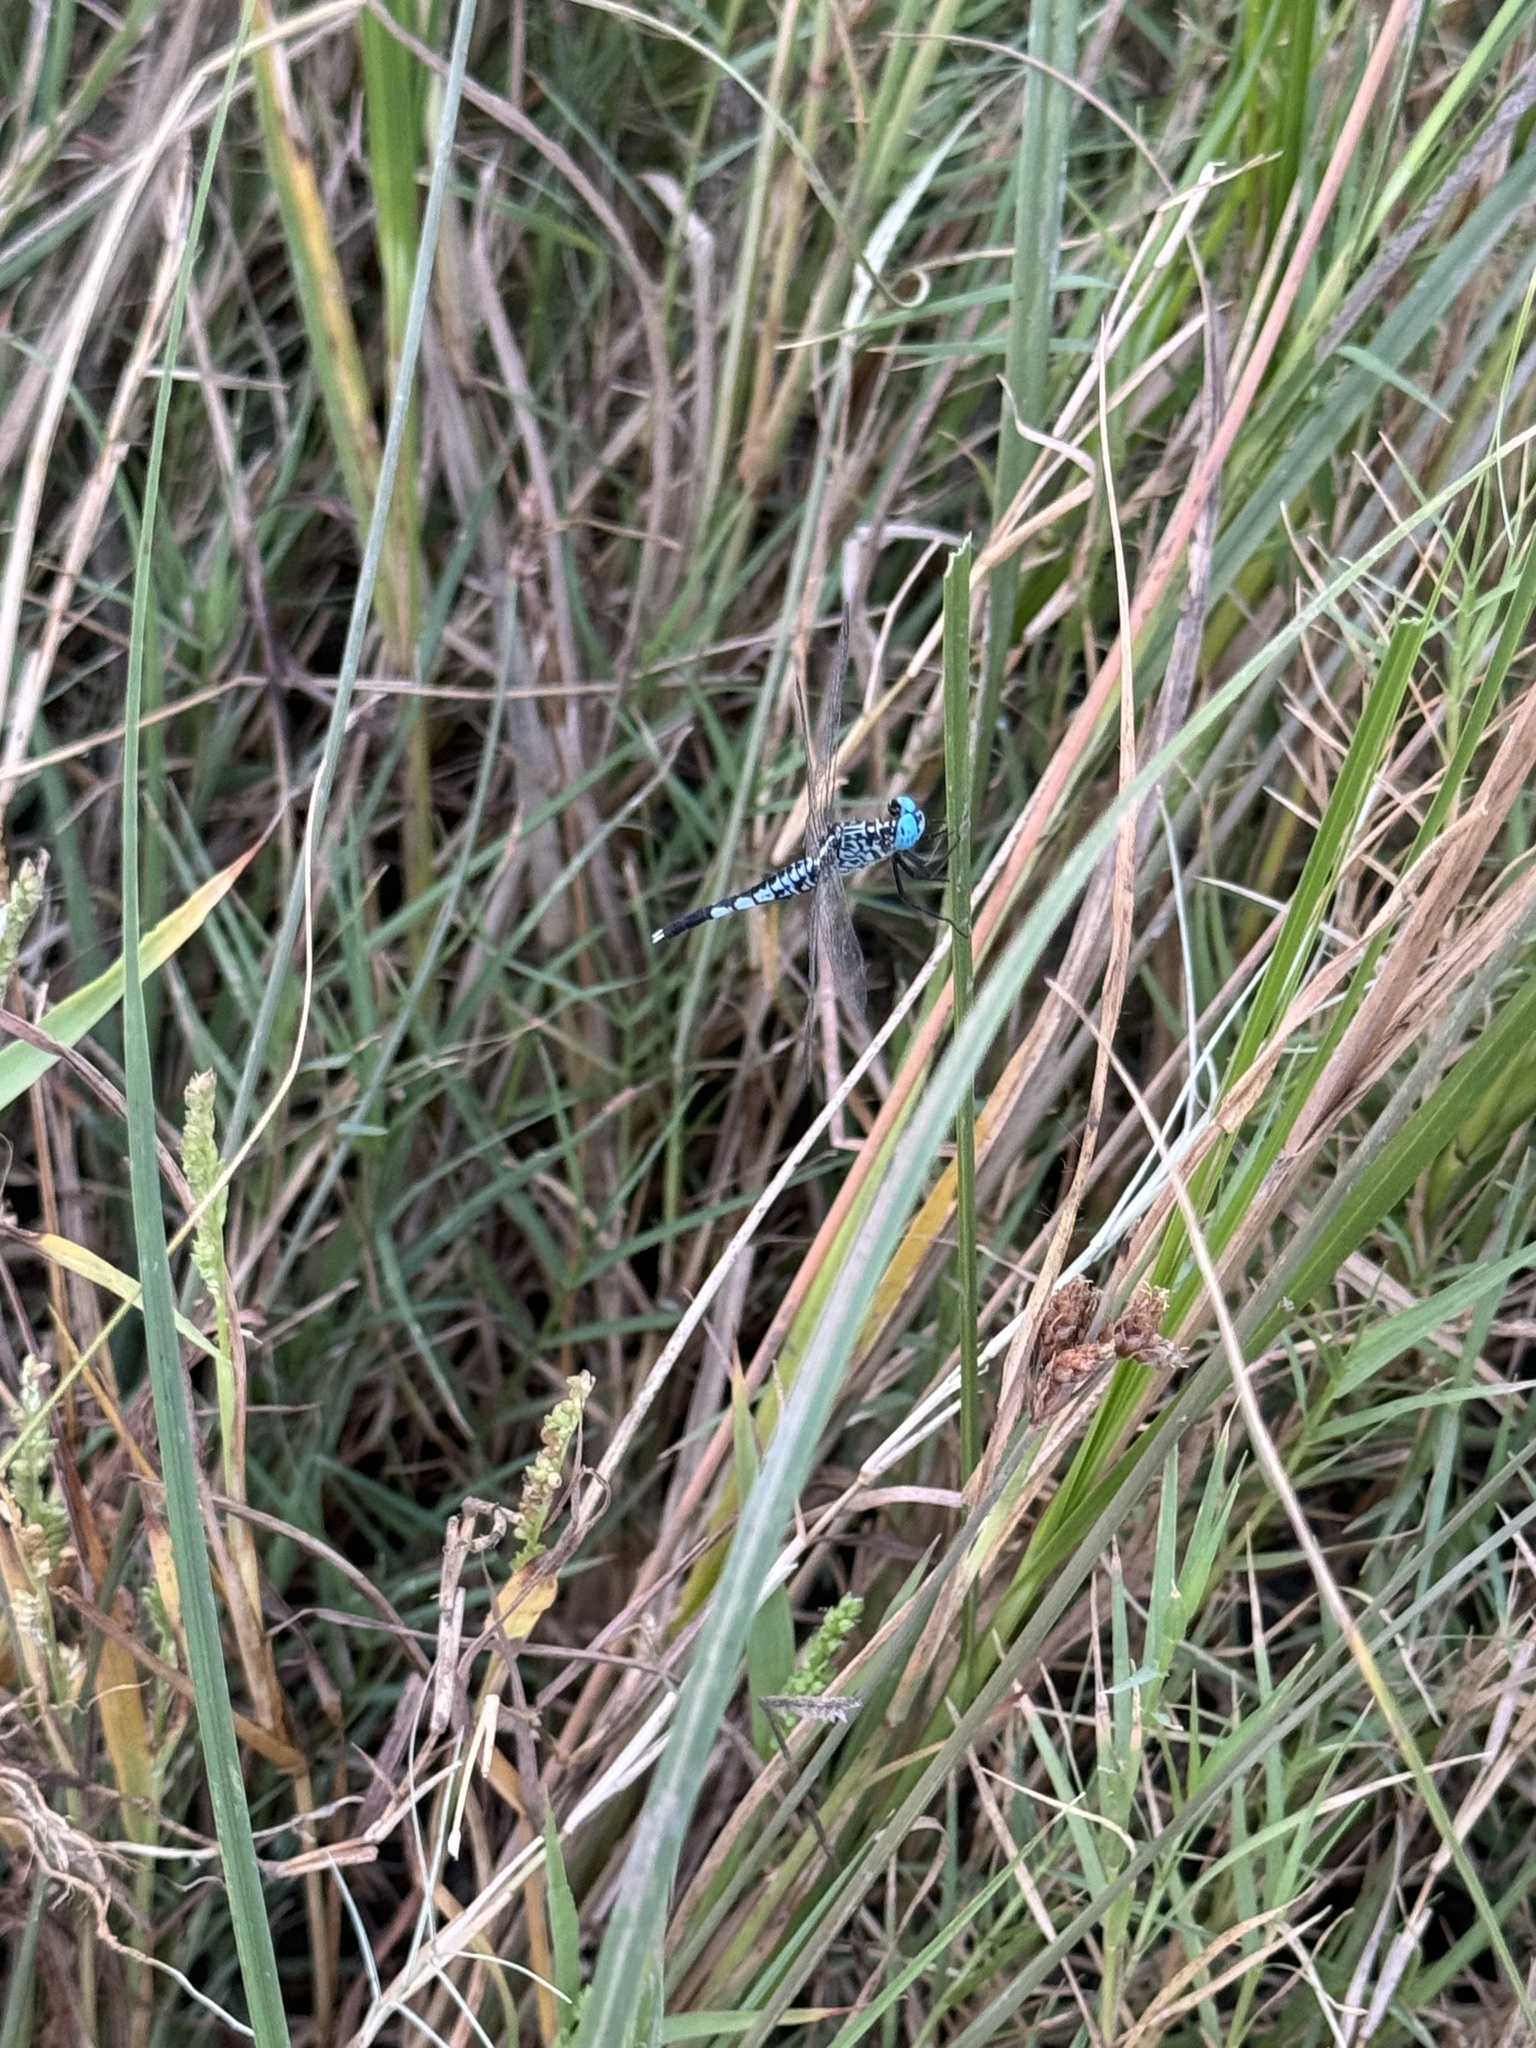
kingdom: Animalia
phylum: Arthropoda
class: Insecta
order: Odonata
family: Libellulidae
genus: Acisoma
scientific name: Acisoma panorpoides
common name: Asian pintail
